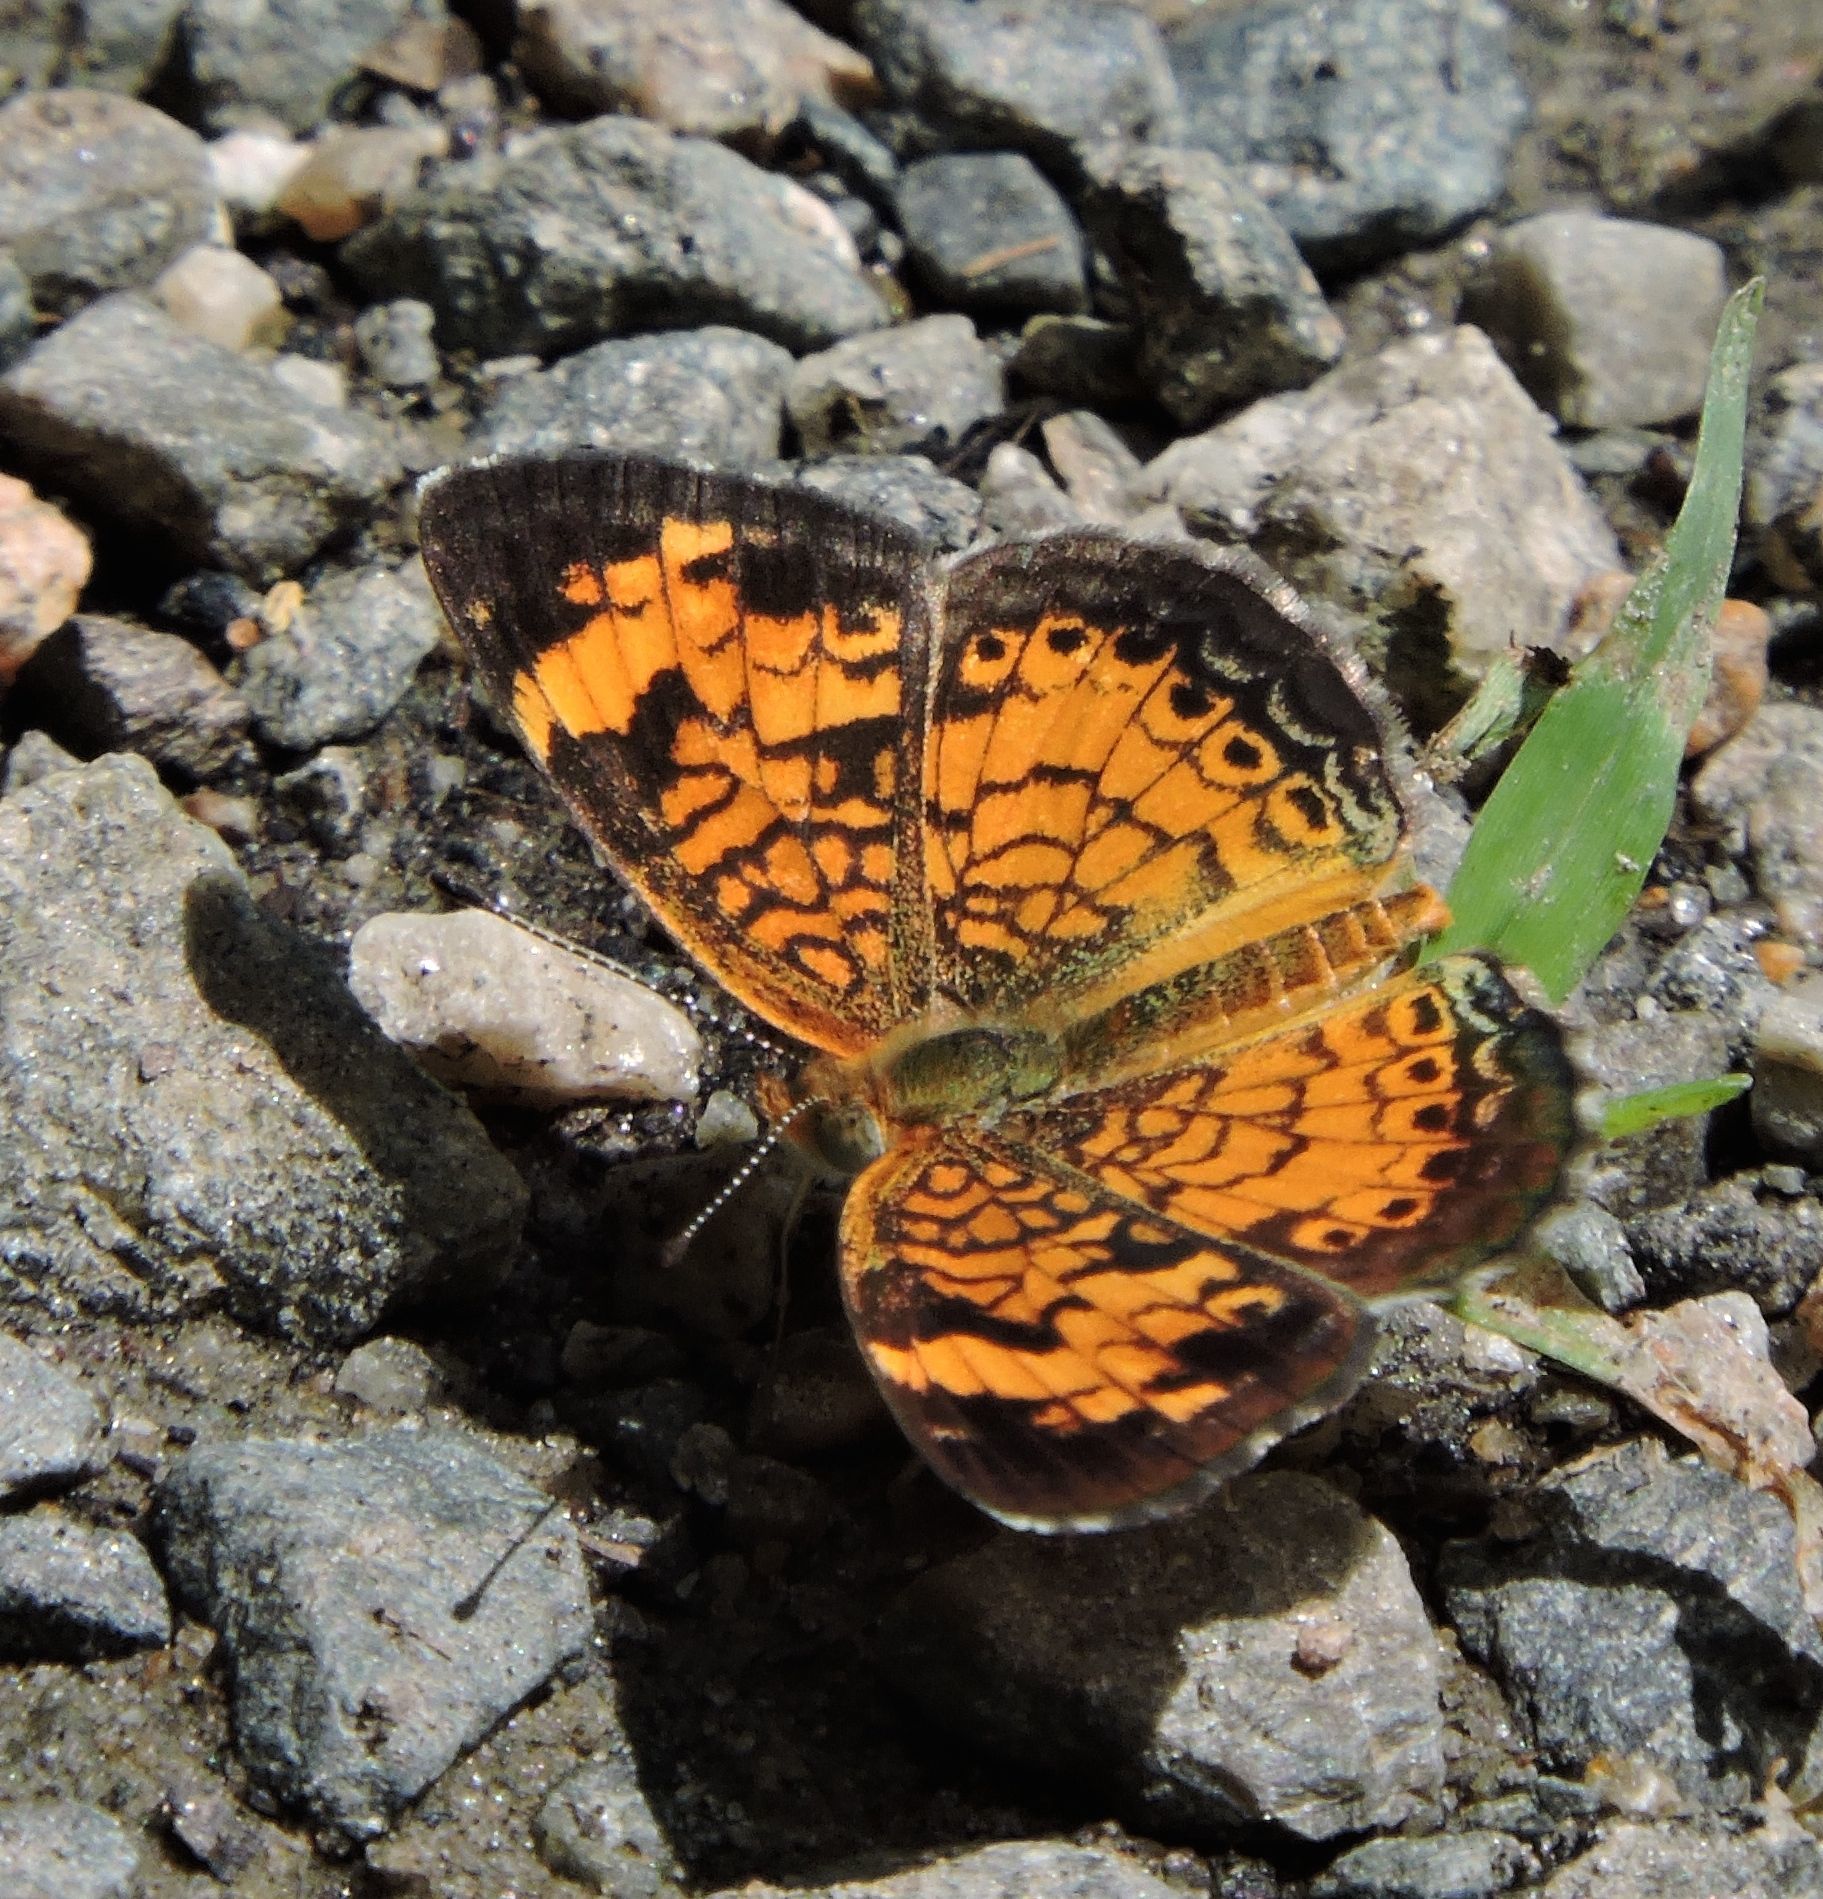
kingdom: Animalia
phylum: Arthropoda
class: Insecta
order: Lepidoptera
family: Nymphalidae
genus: Phyciodes
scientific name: Phyciodes tharos
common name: Pearl crescent
